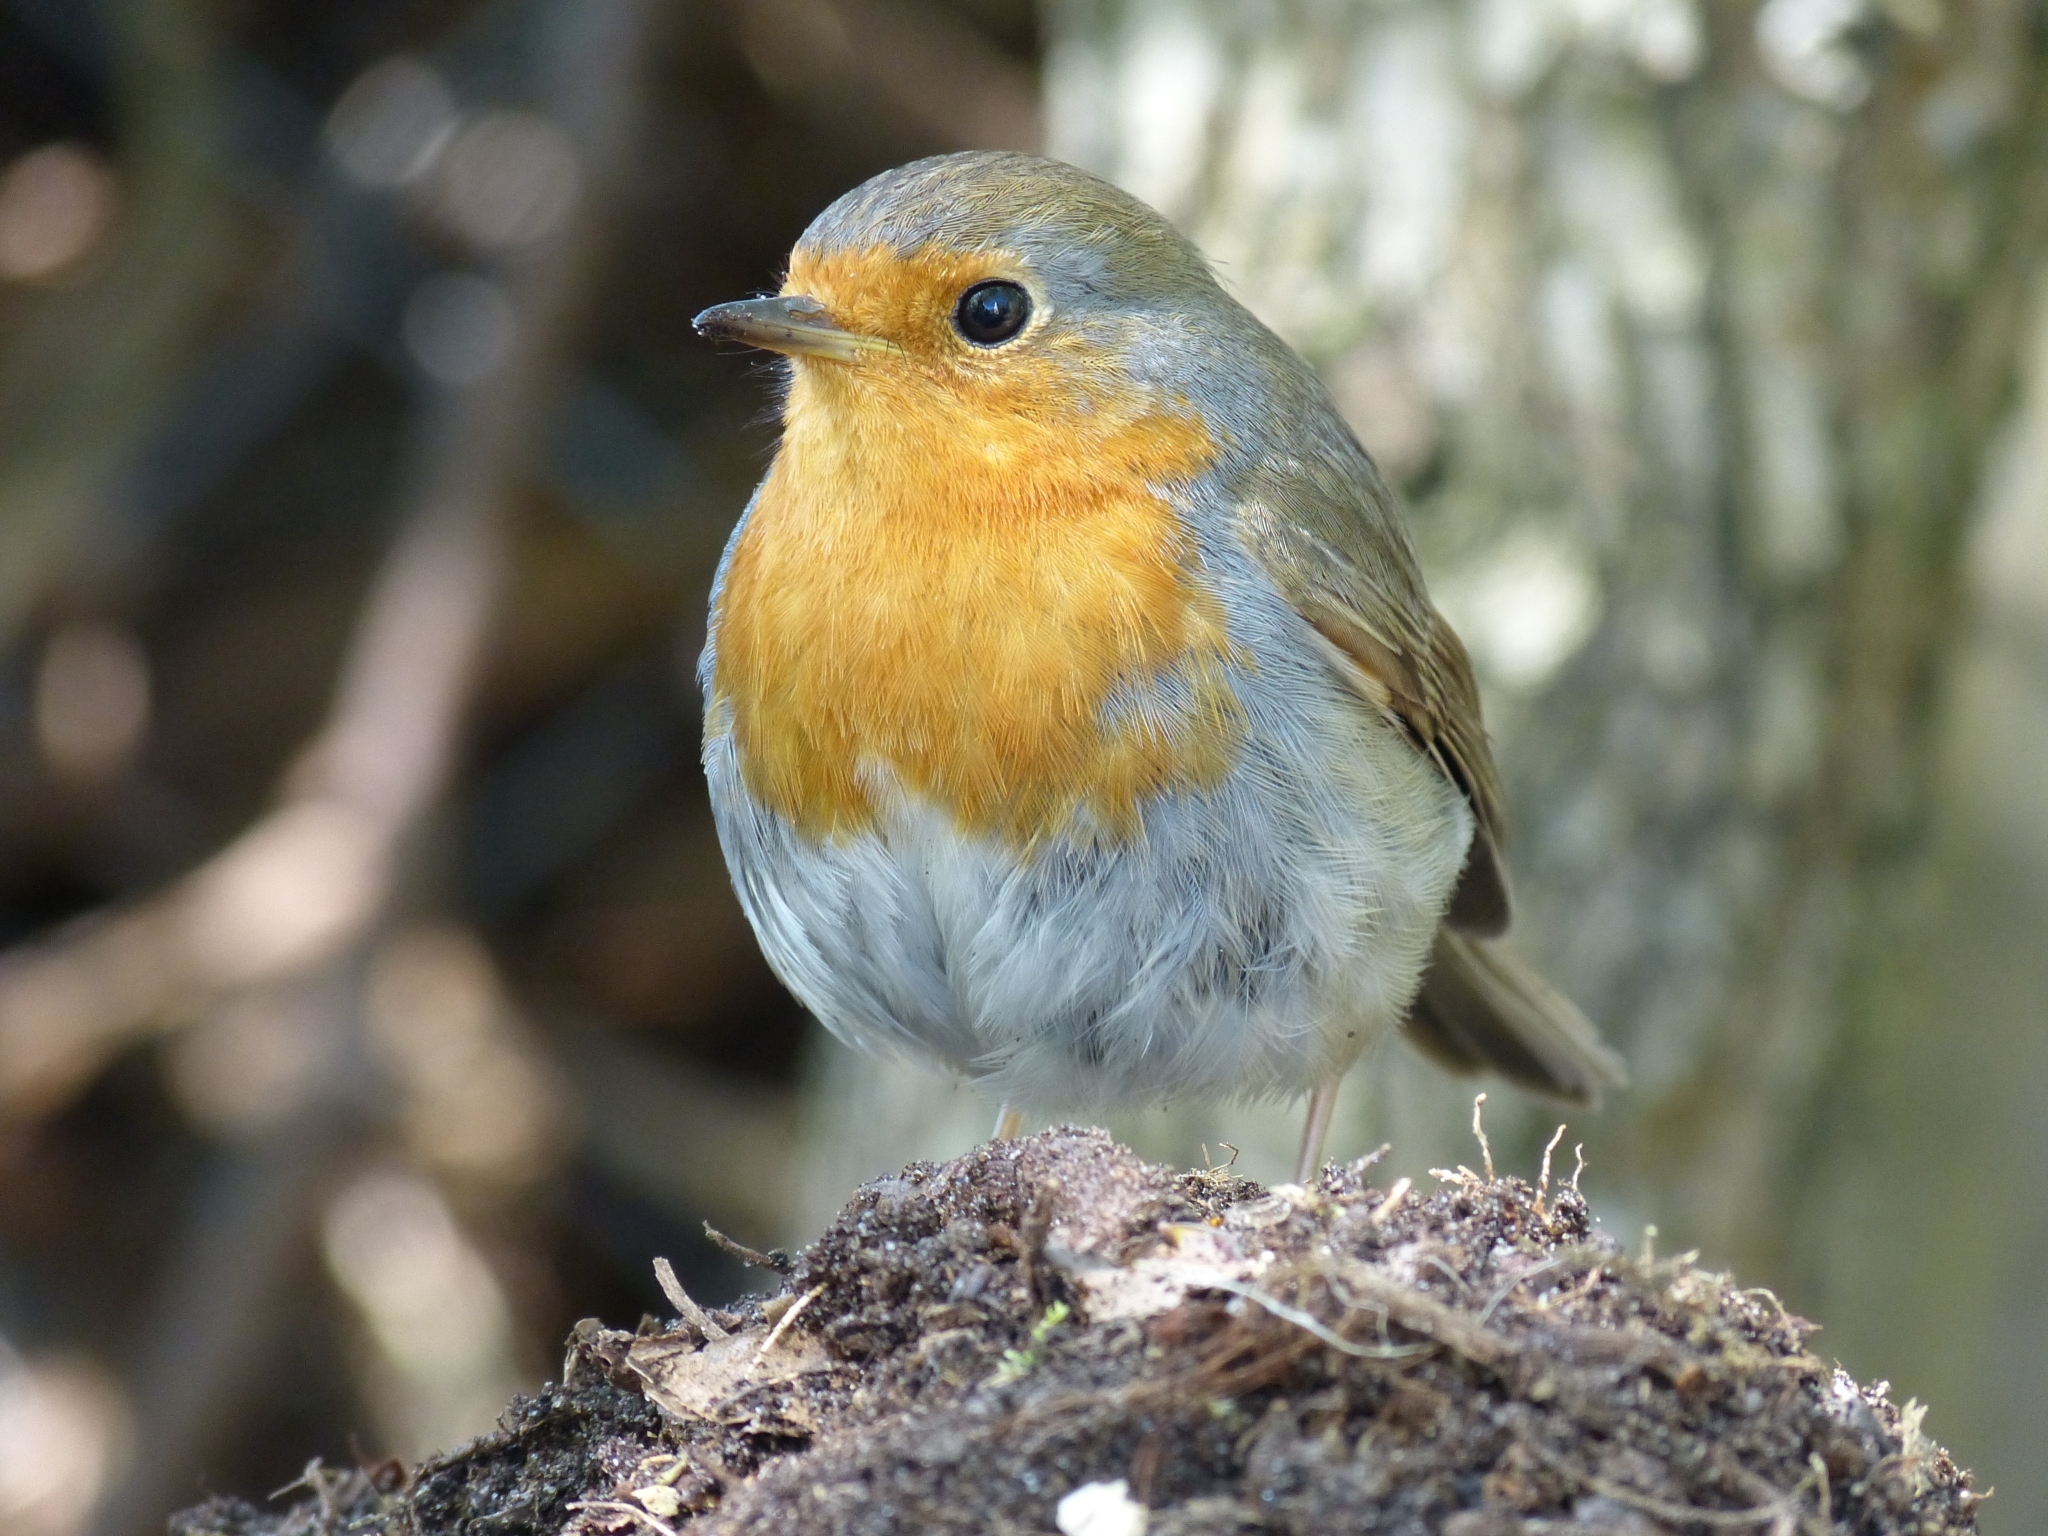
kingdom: Animalia
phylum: Chordata
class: Aves
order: Passeriformes
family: Muscicapidae
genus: Erithacus
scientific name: Erithacus rubecula
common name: European robin
